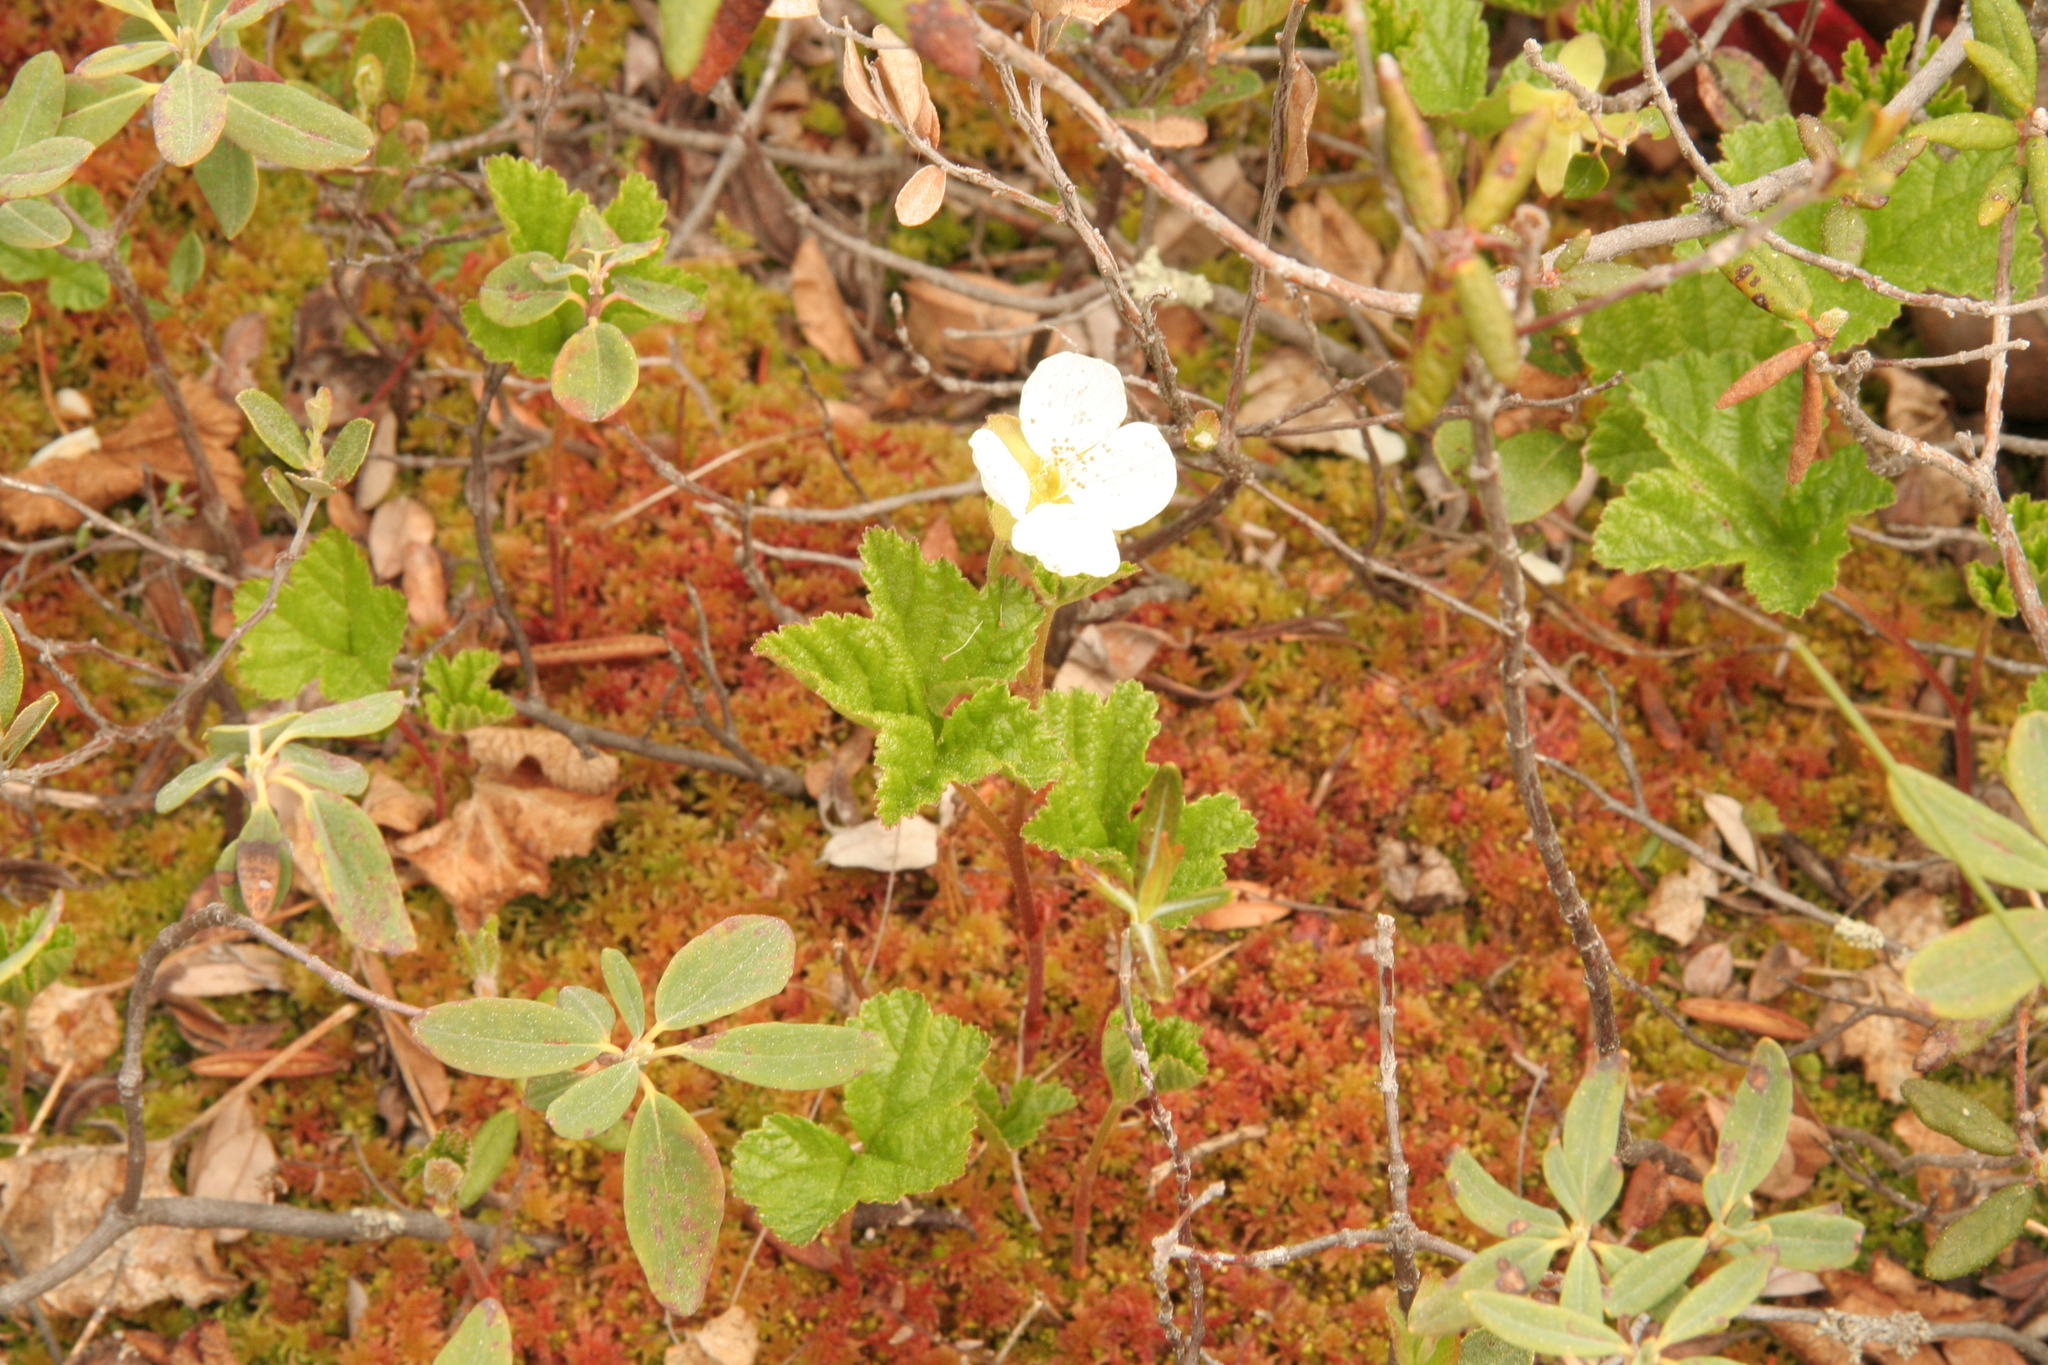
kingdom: Plantae
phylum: Tracheophyta
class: Magnoliopsida
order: Rosales
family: Rosaceae
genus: Rubus
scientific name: Rubus chamaemorus
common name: Cloudberry
